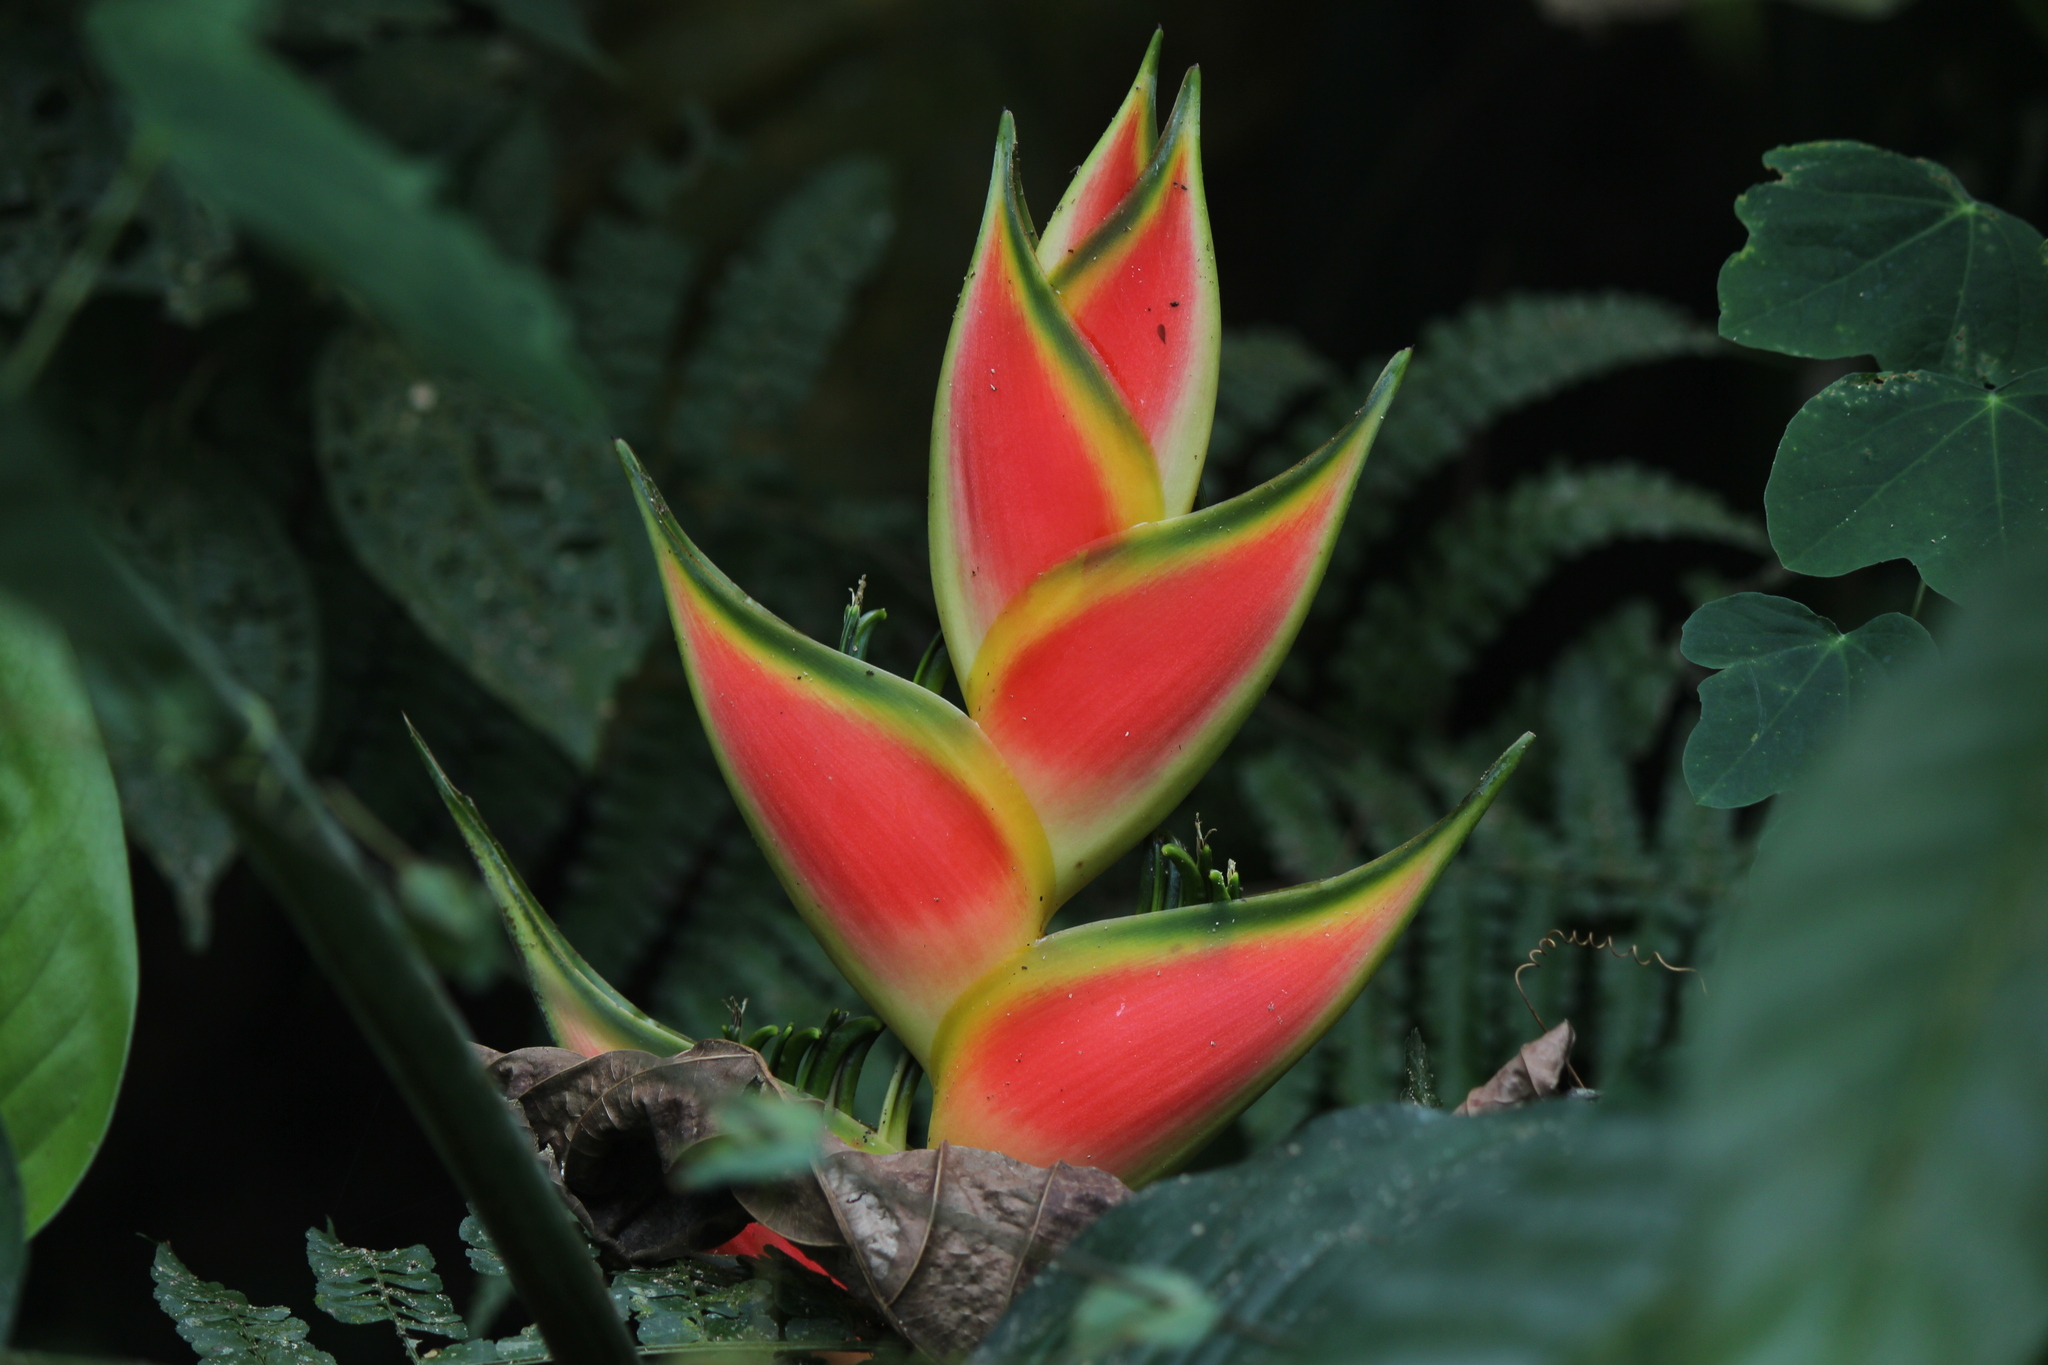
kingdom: Plantae
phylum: Tracheophyta
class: Liliopsida
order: Zingiberales
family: Heliconiaceae
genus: Heliconia
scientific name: Heliconia wagneriana
